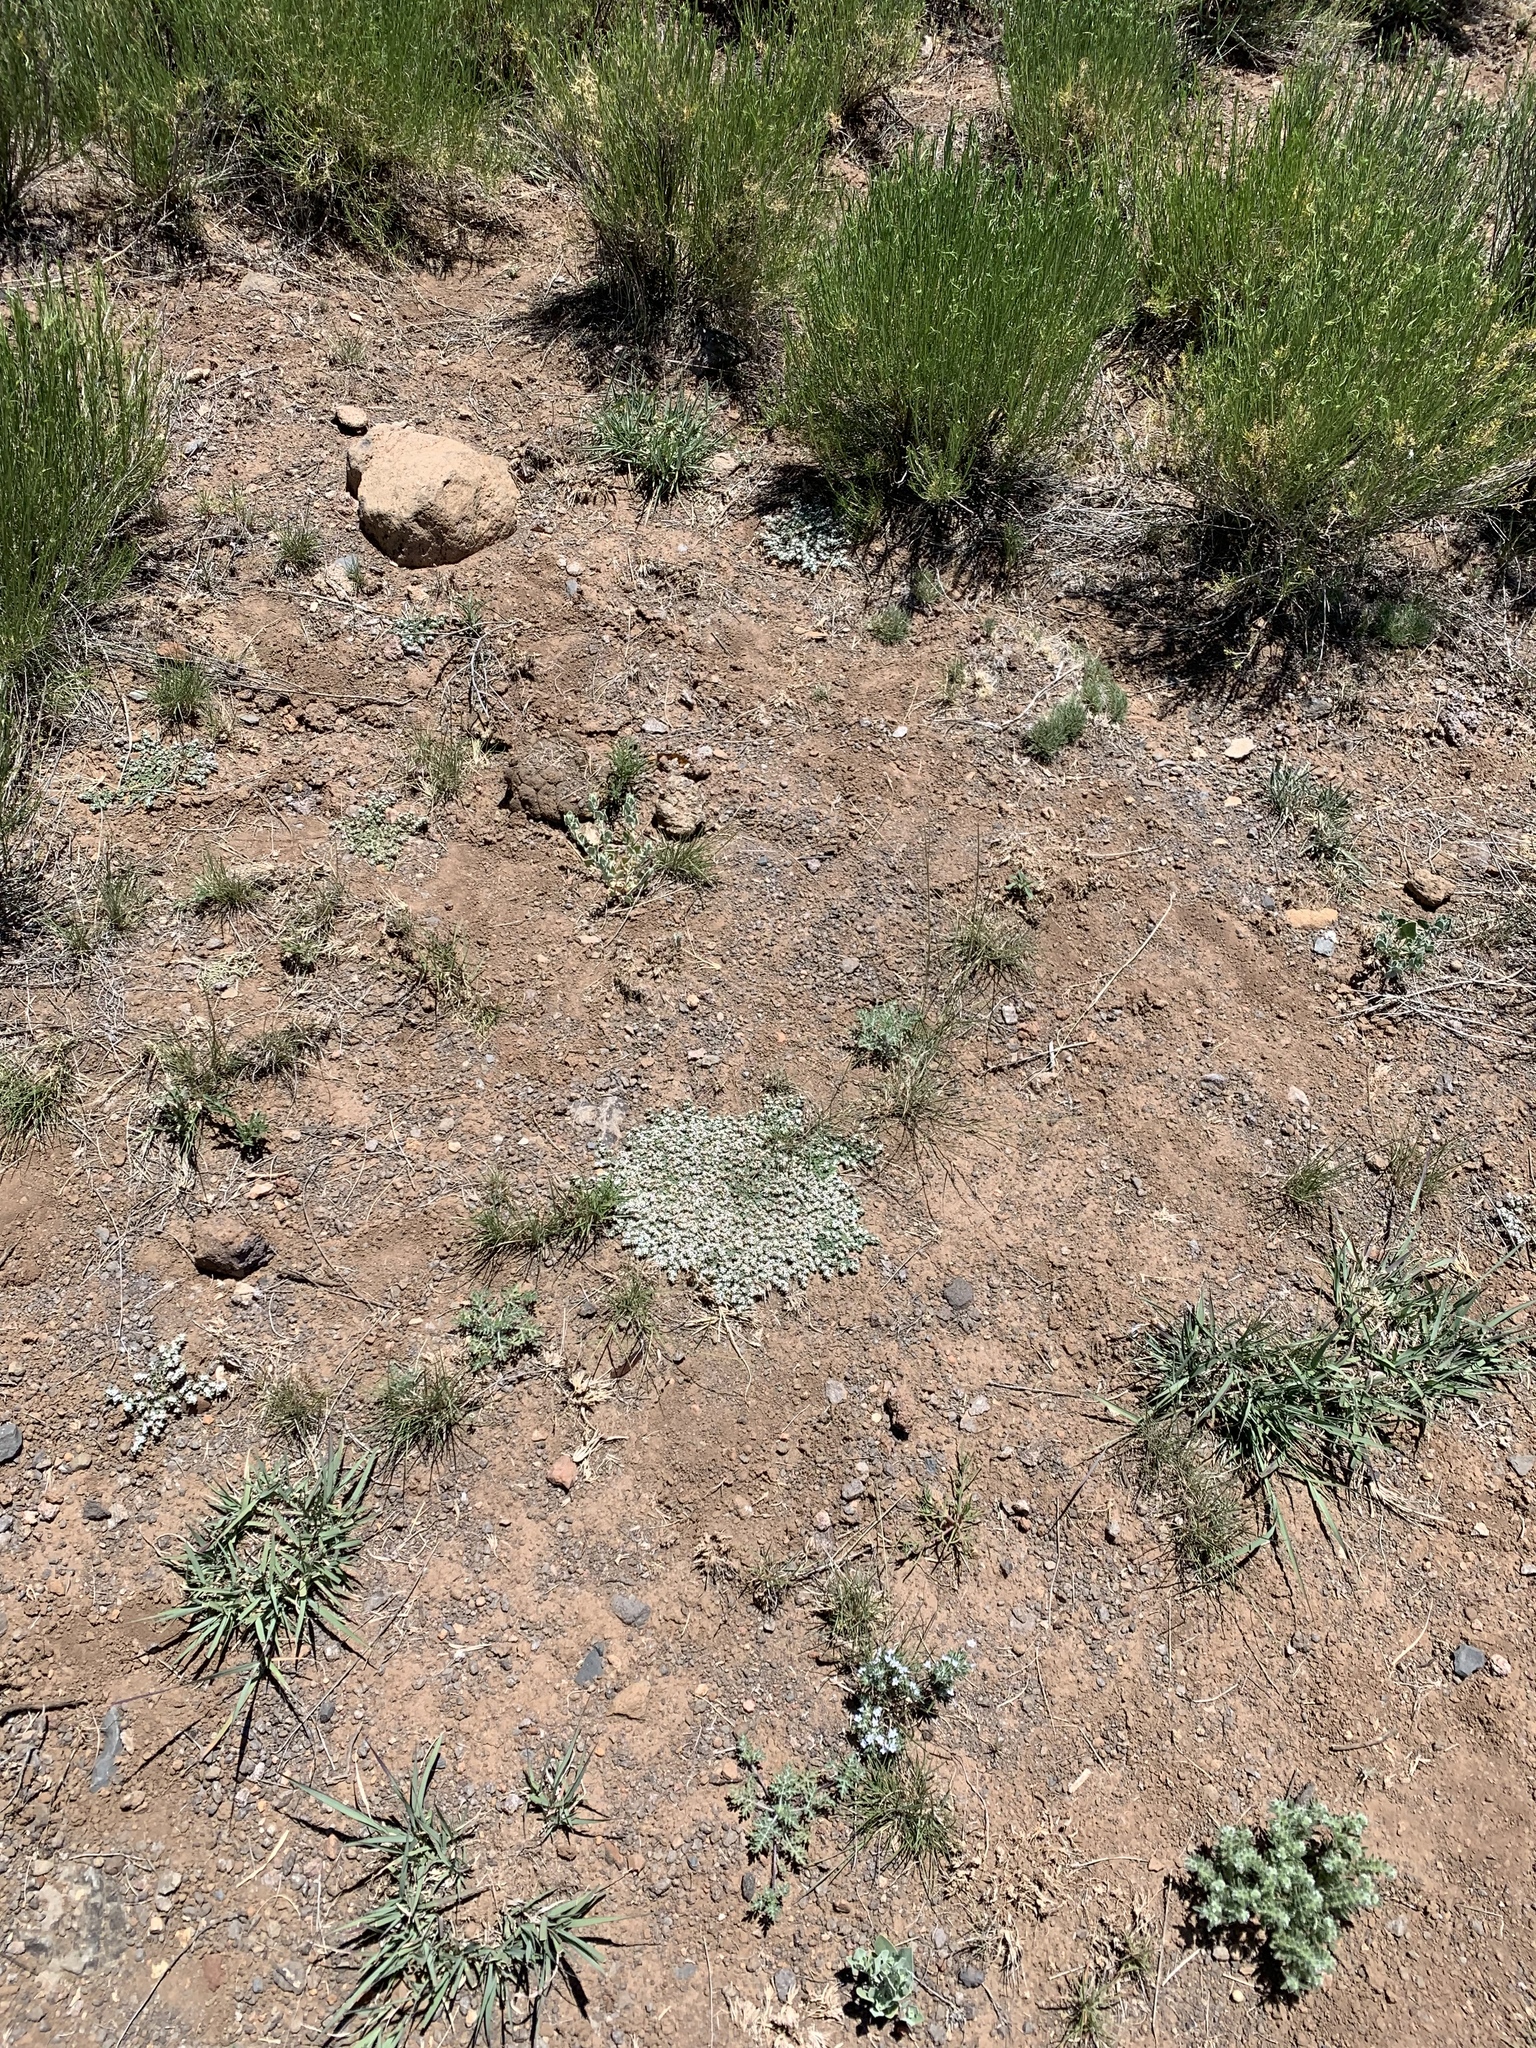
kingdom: Plantae
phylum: Tracheophyta
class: Magnoliopsida
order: Malpighiales
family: Euphorbiaceae
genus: Euphorbia
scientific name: Euphorbia albomarginata
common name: Whitemargin sandmat
